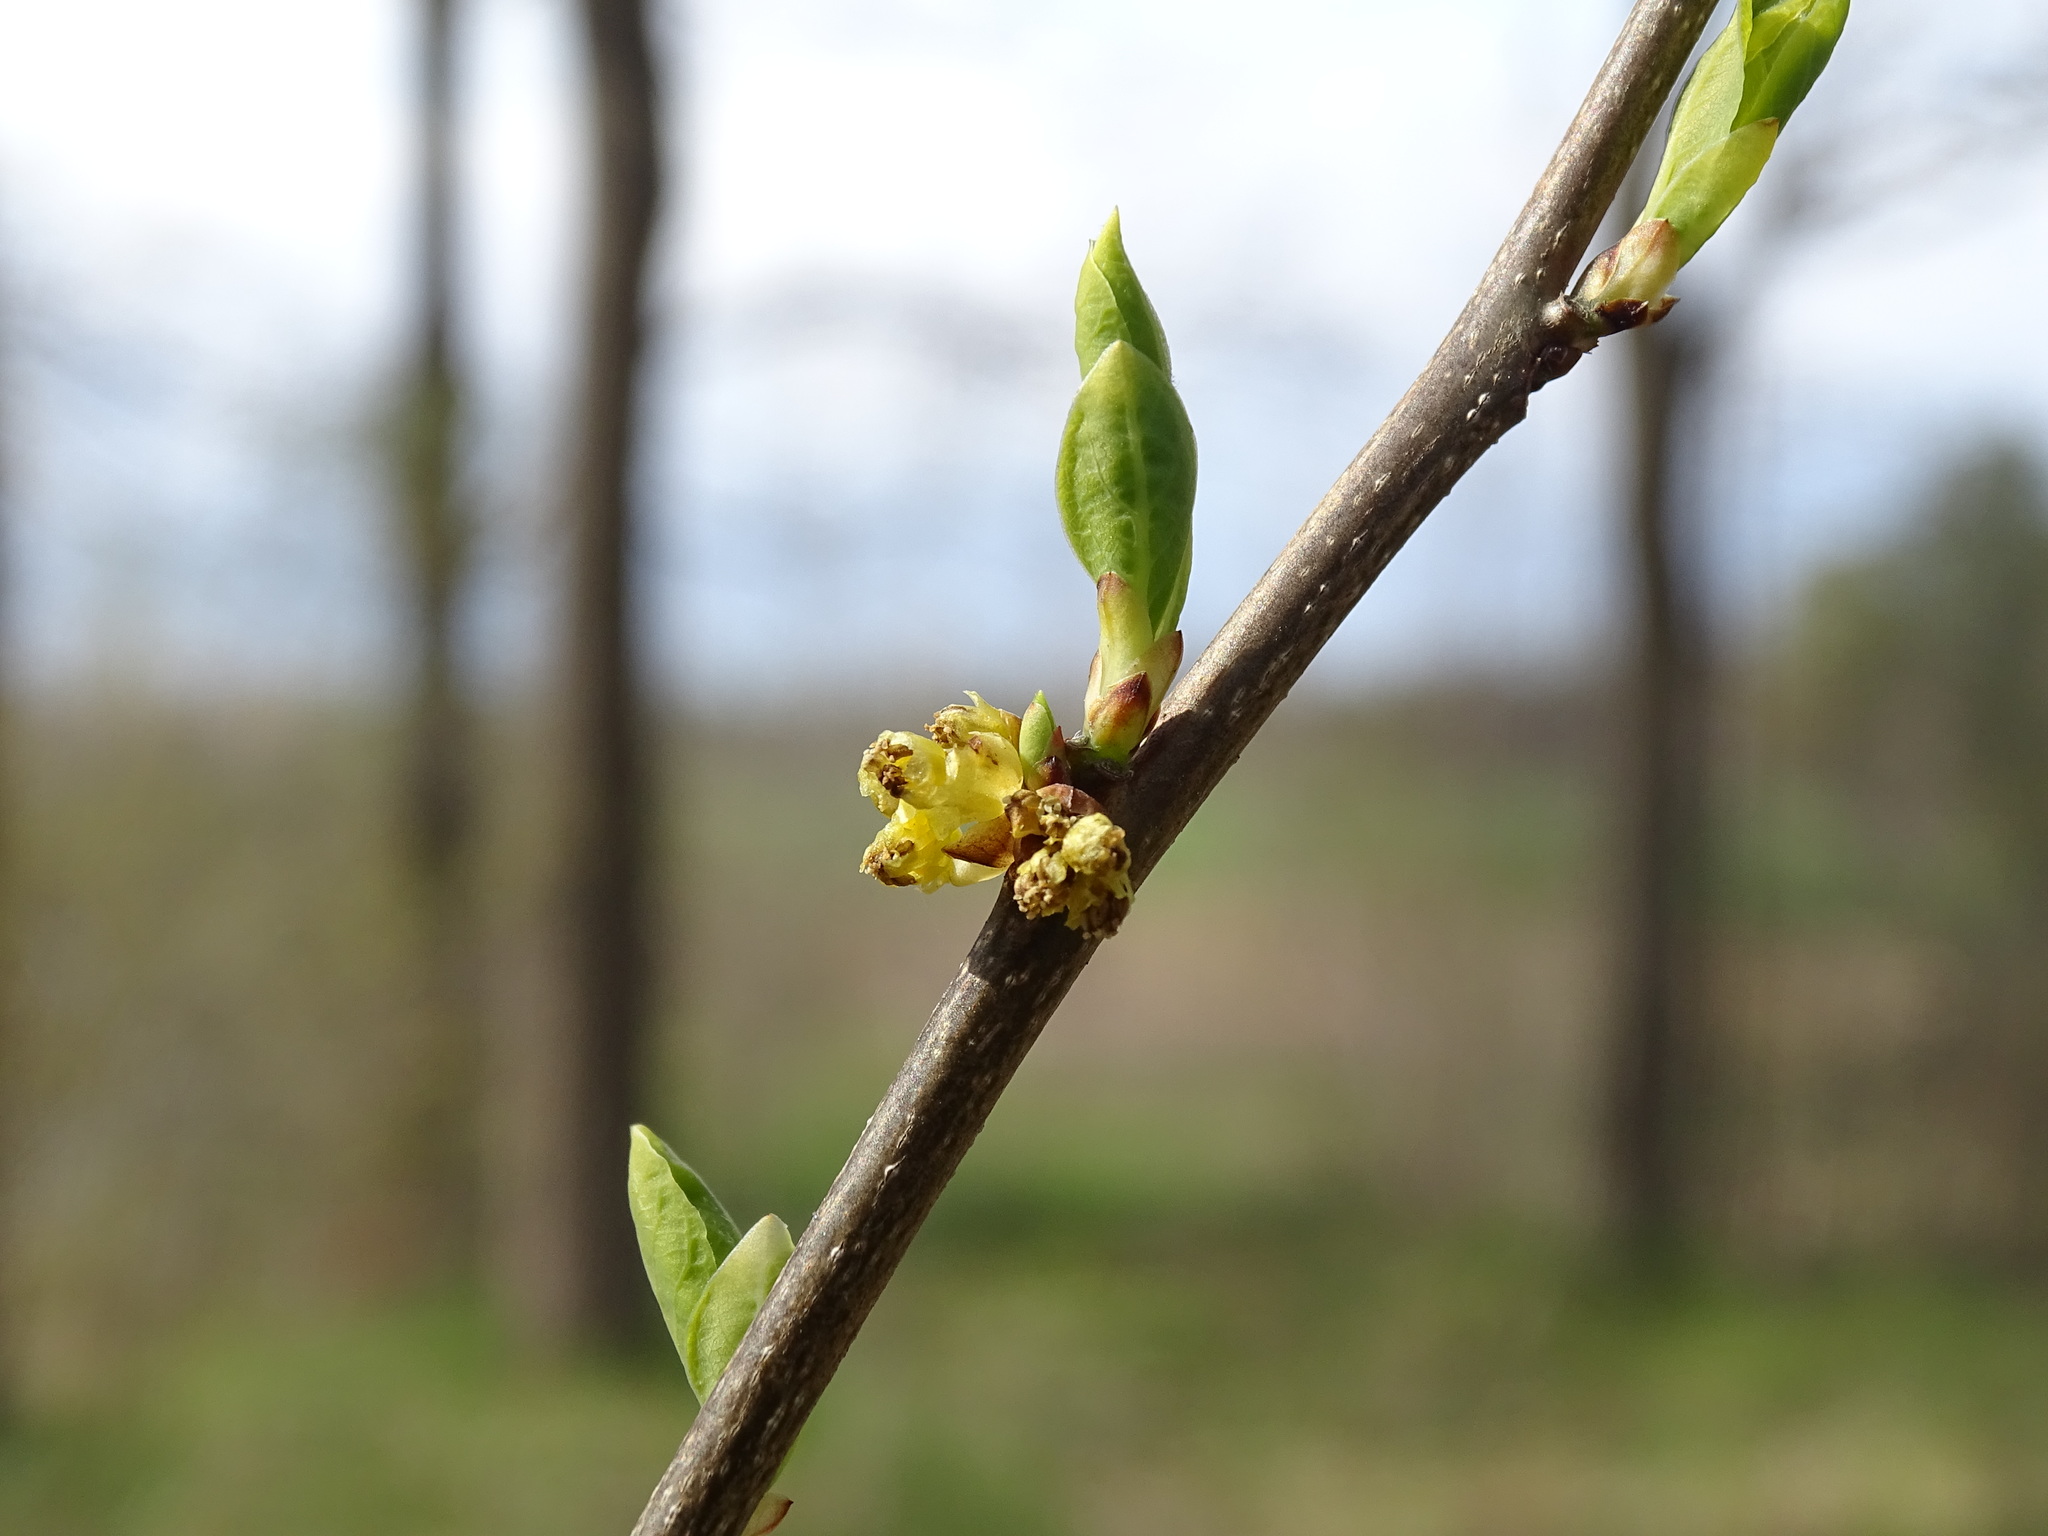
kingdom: Plantae
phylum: Tracheophyta
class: Magnoliopsida
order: Laurales
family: Lauraceae
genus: Lindera
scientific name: Lindera benzoin
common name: Spicebush
